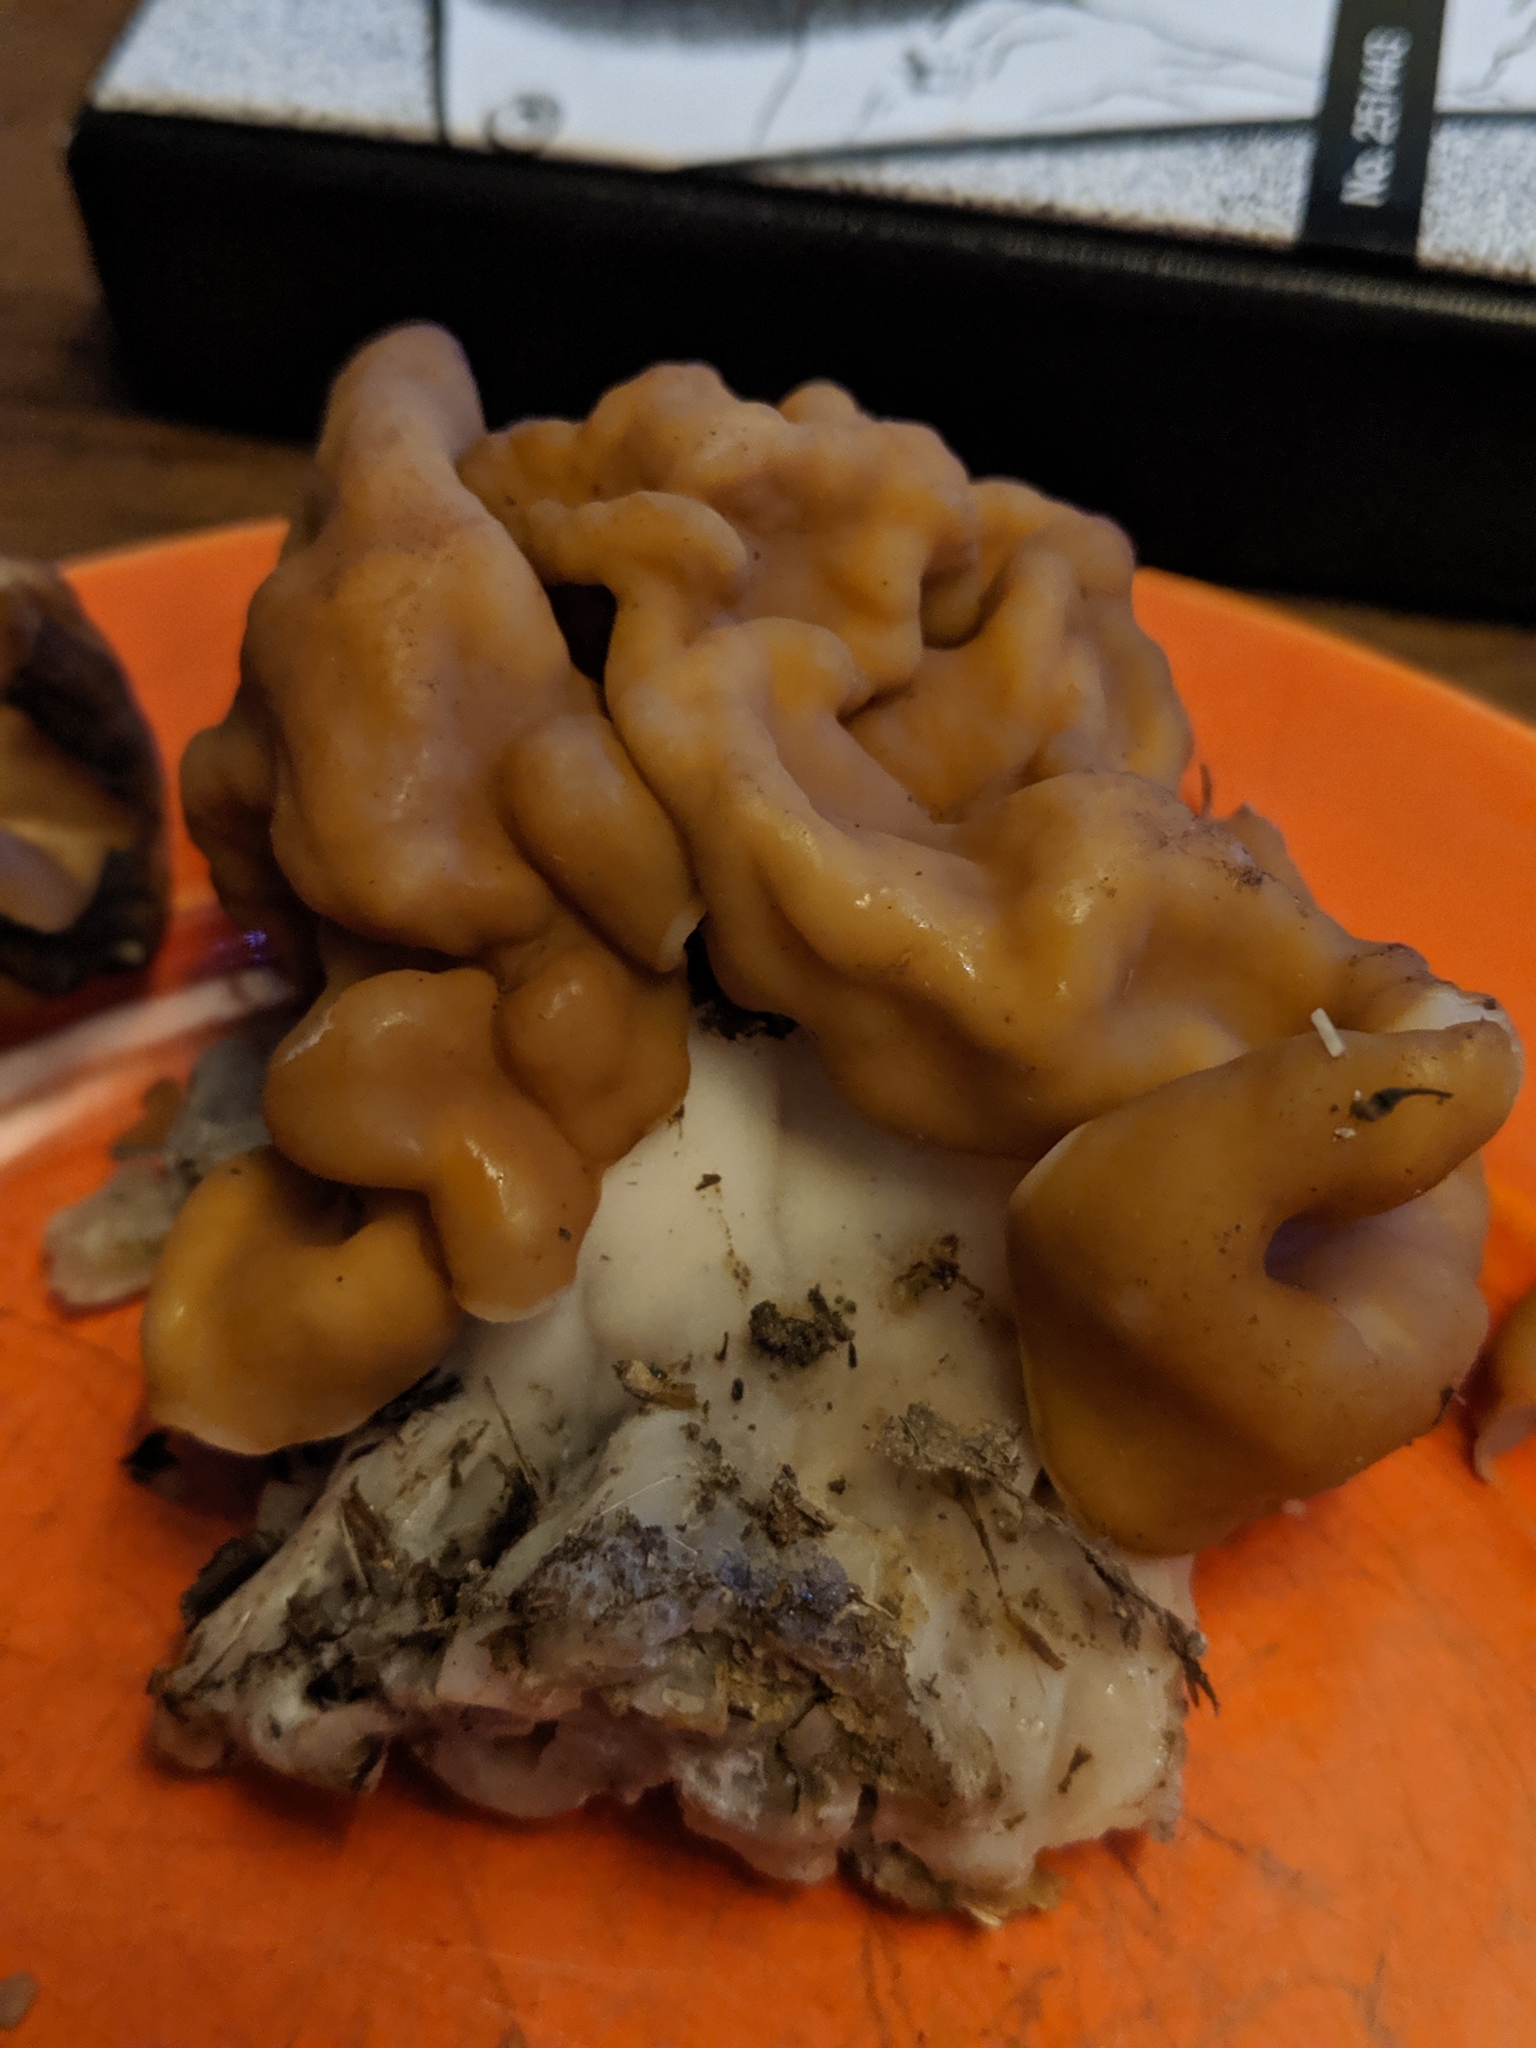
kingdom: Fungi
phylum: Ascomycota
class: Pezizomycetes
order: Pezizales
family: Discinaceae
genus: Gyromitra
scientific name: Gyromitra korfii
